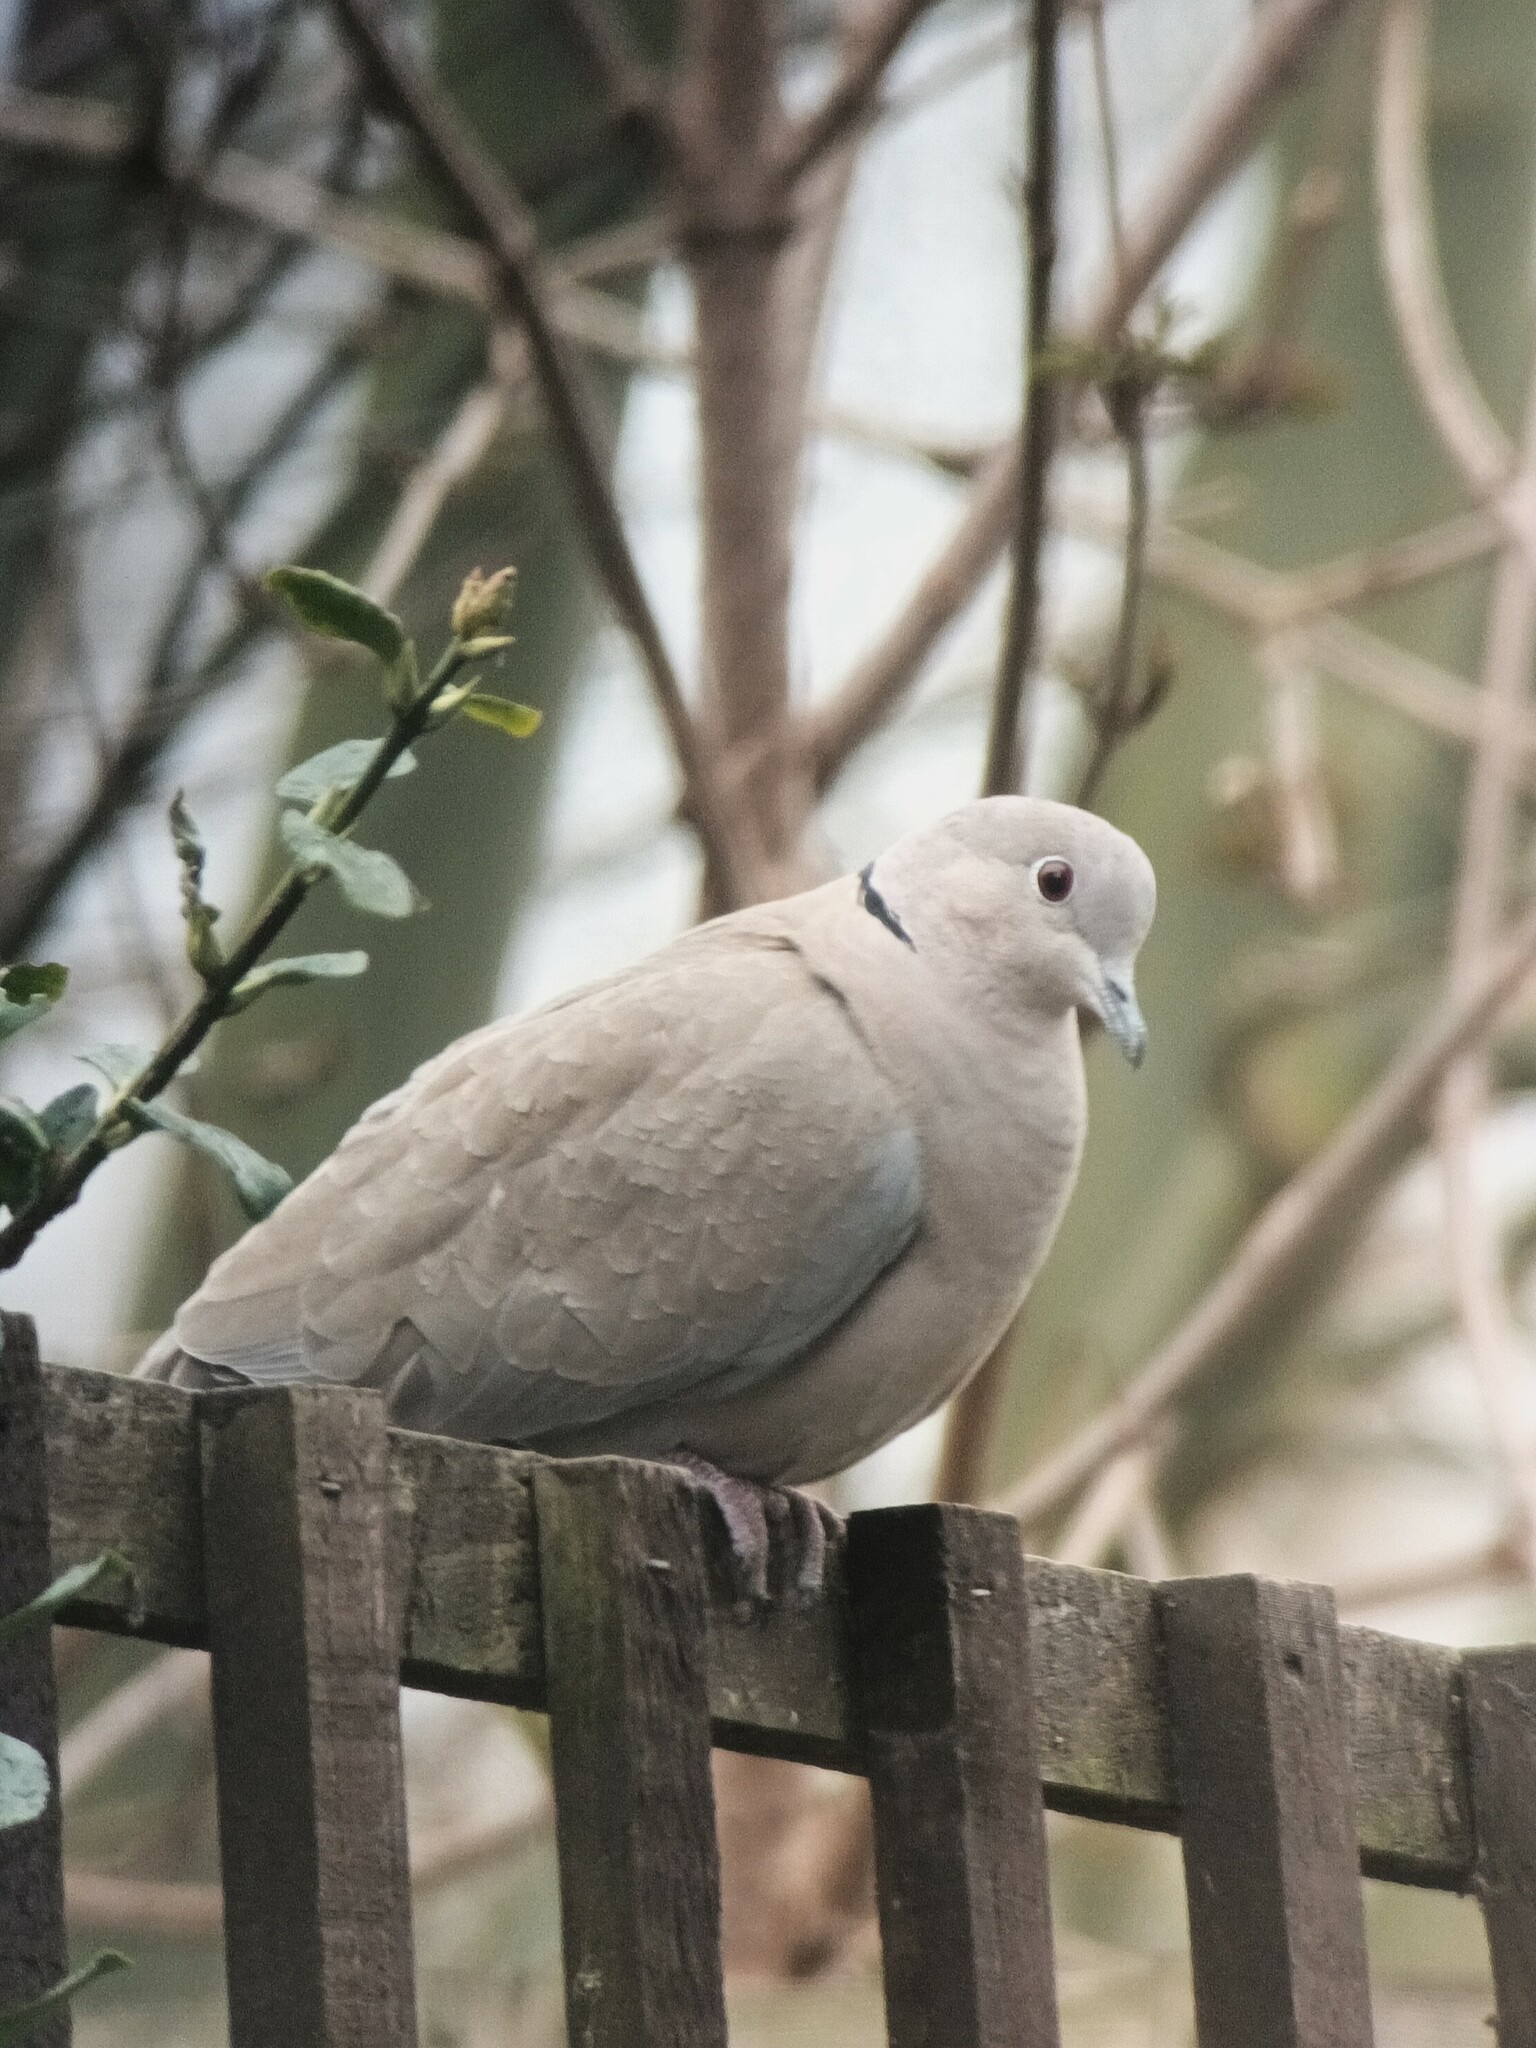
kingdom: Animalia
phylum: Chordata
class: Aves
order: Columbiformes
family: Columbidae
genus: Streptopelia
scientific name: Streptopelia decaocto
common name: Eurasian collared dove
